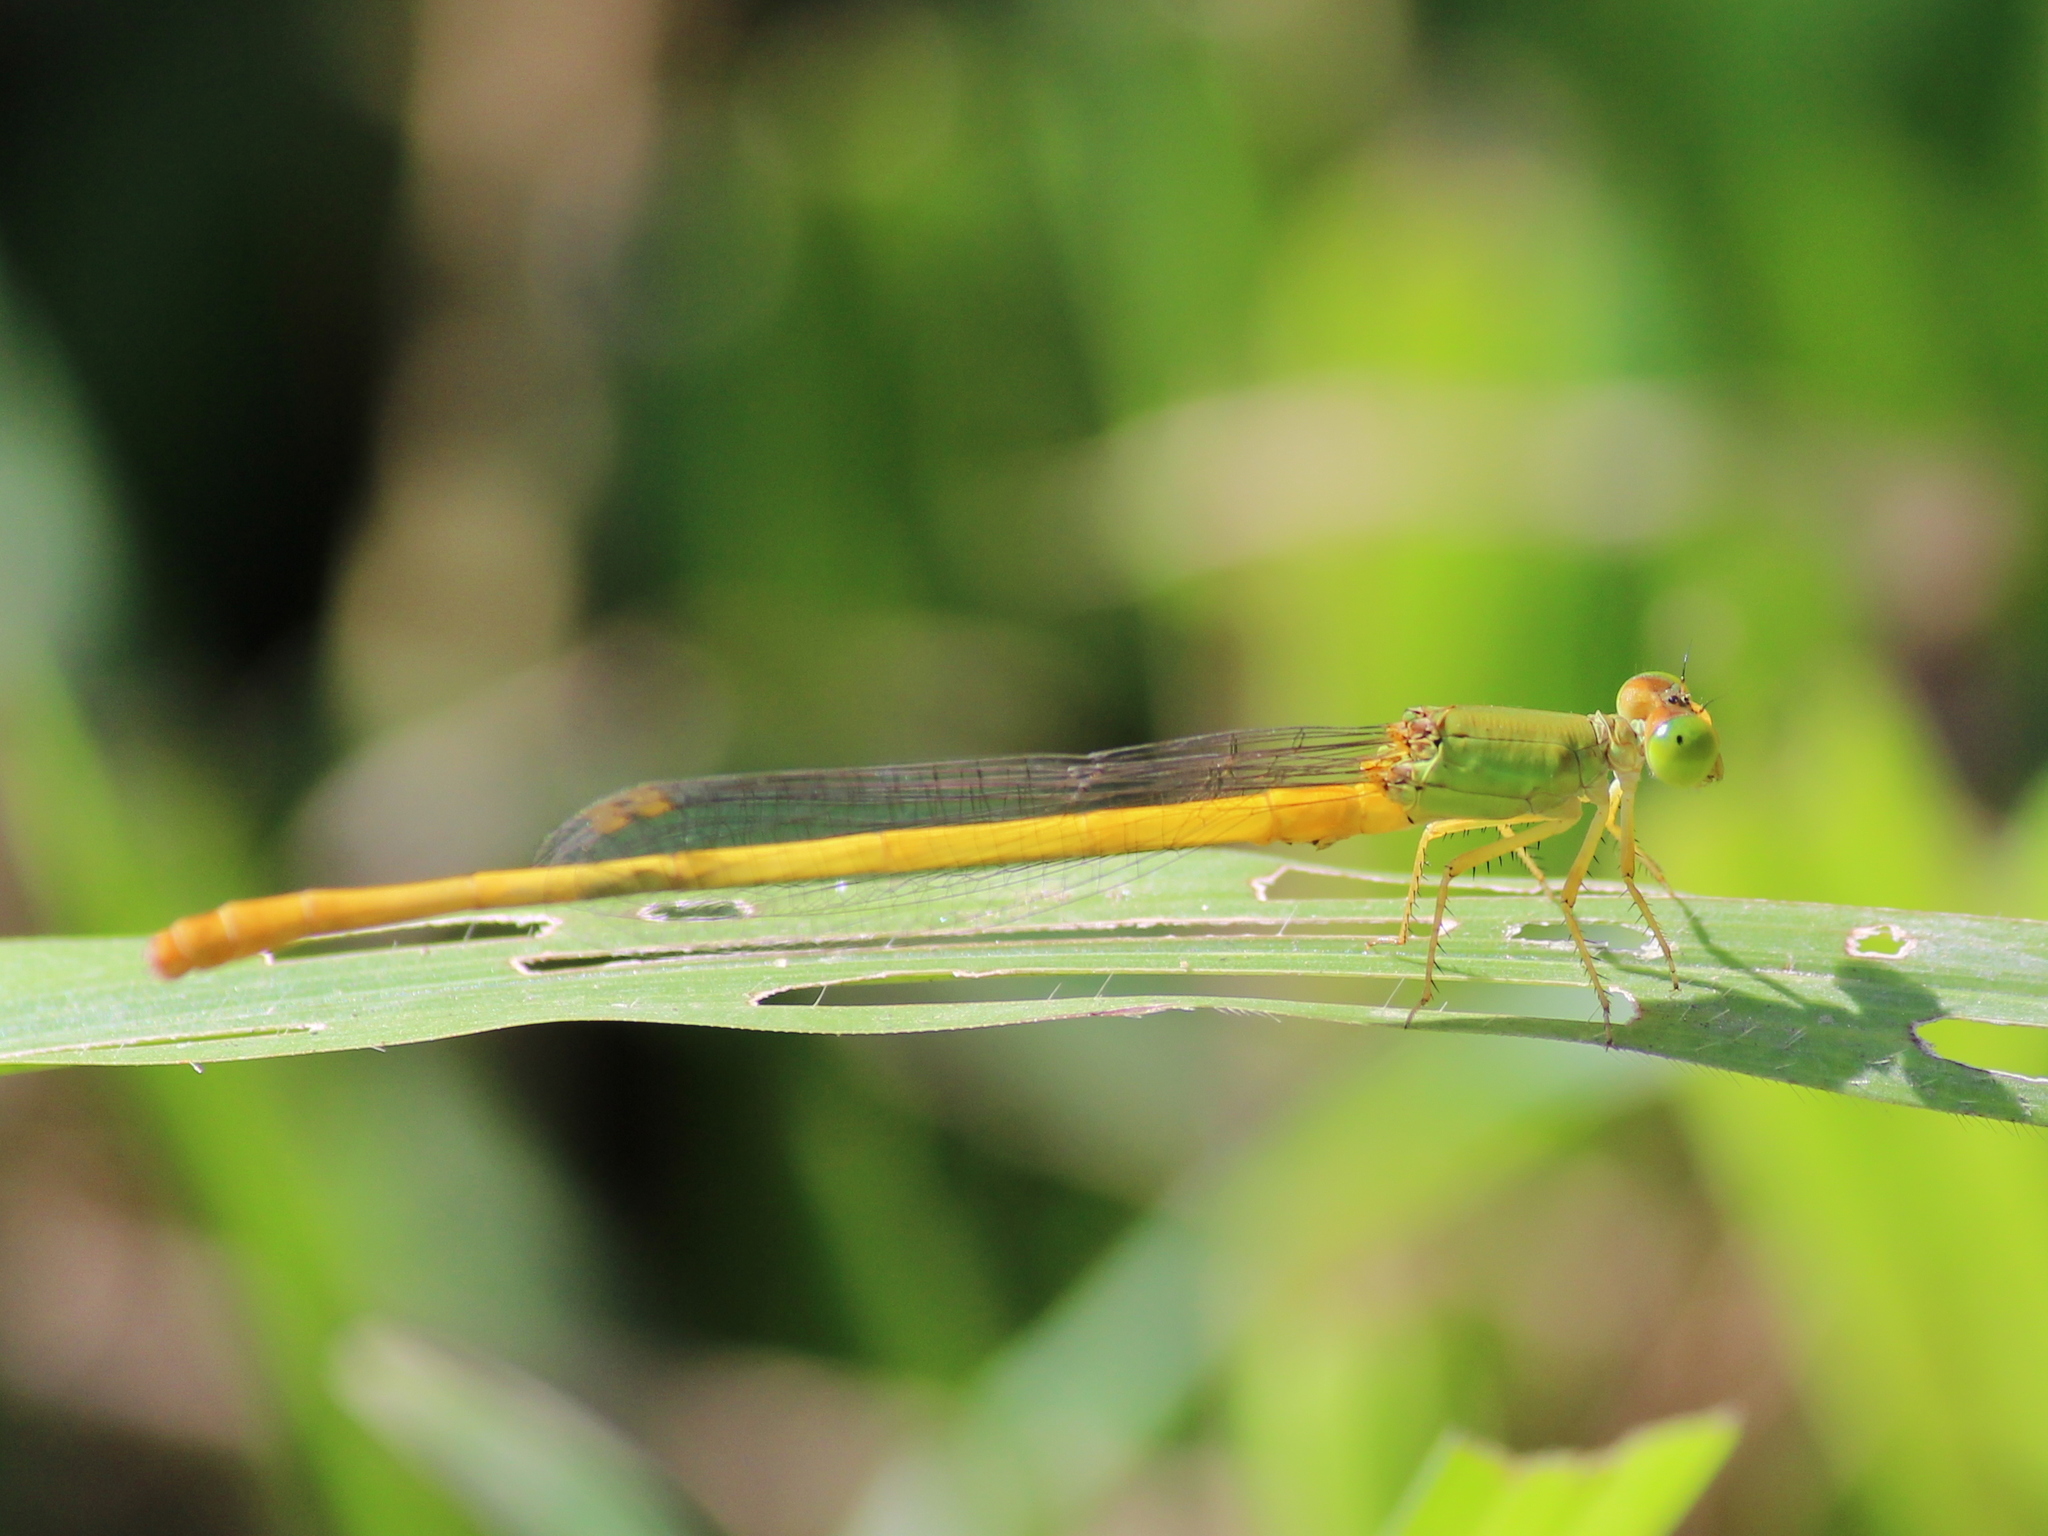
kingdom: Animalia
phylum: Arthropoda
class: Insecta
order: Odonata
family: Coenagrionidae
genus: Ceriagrion
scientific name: Ceriagrion coromandelianum
